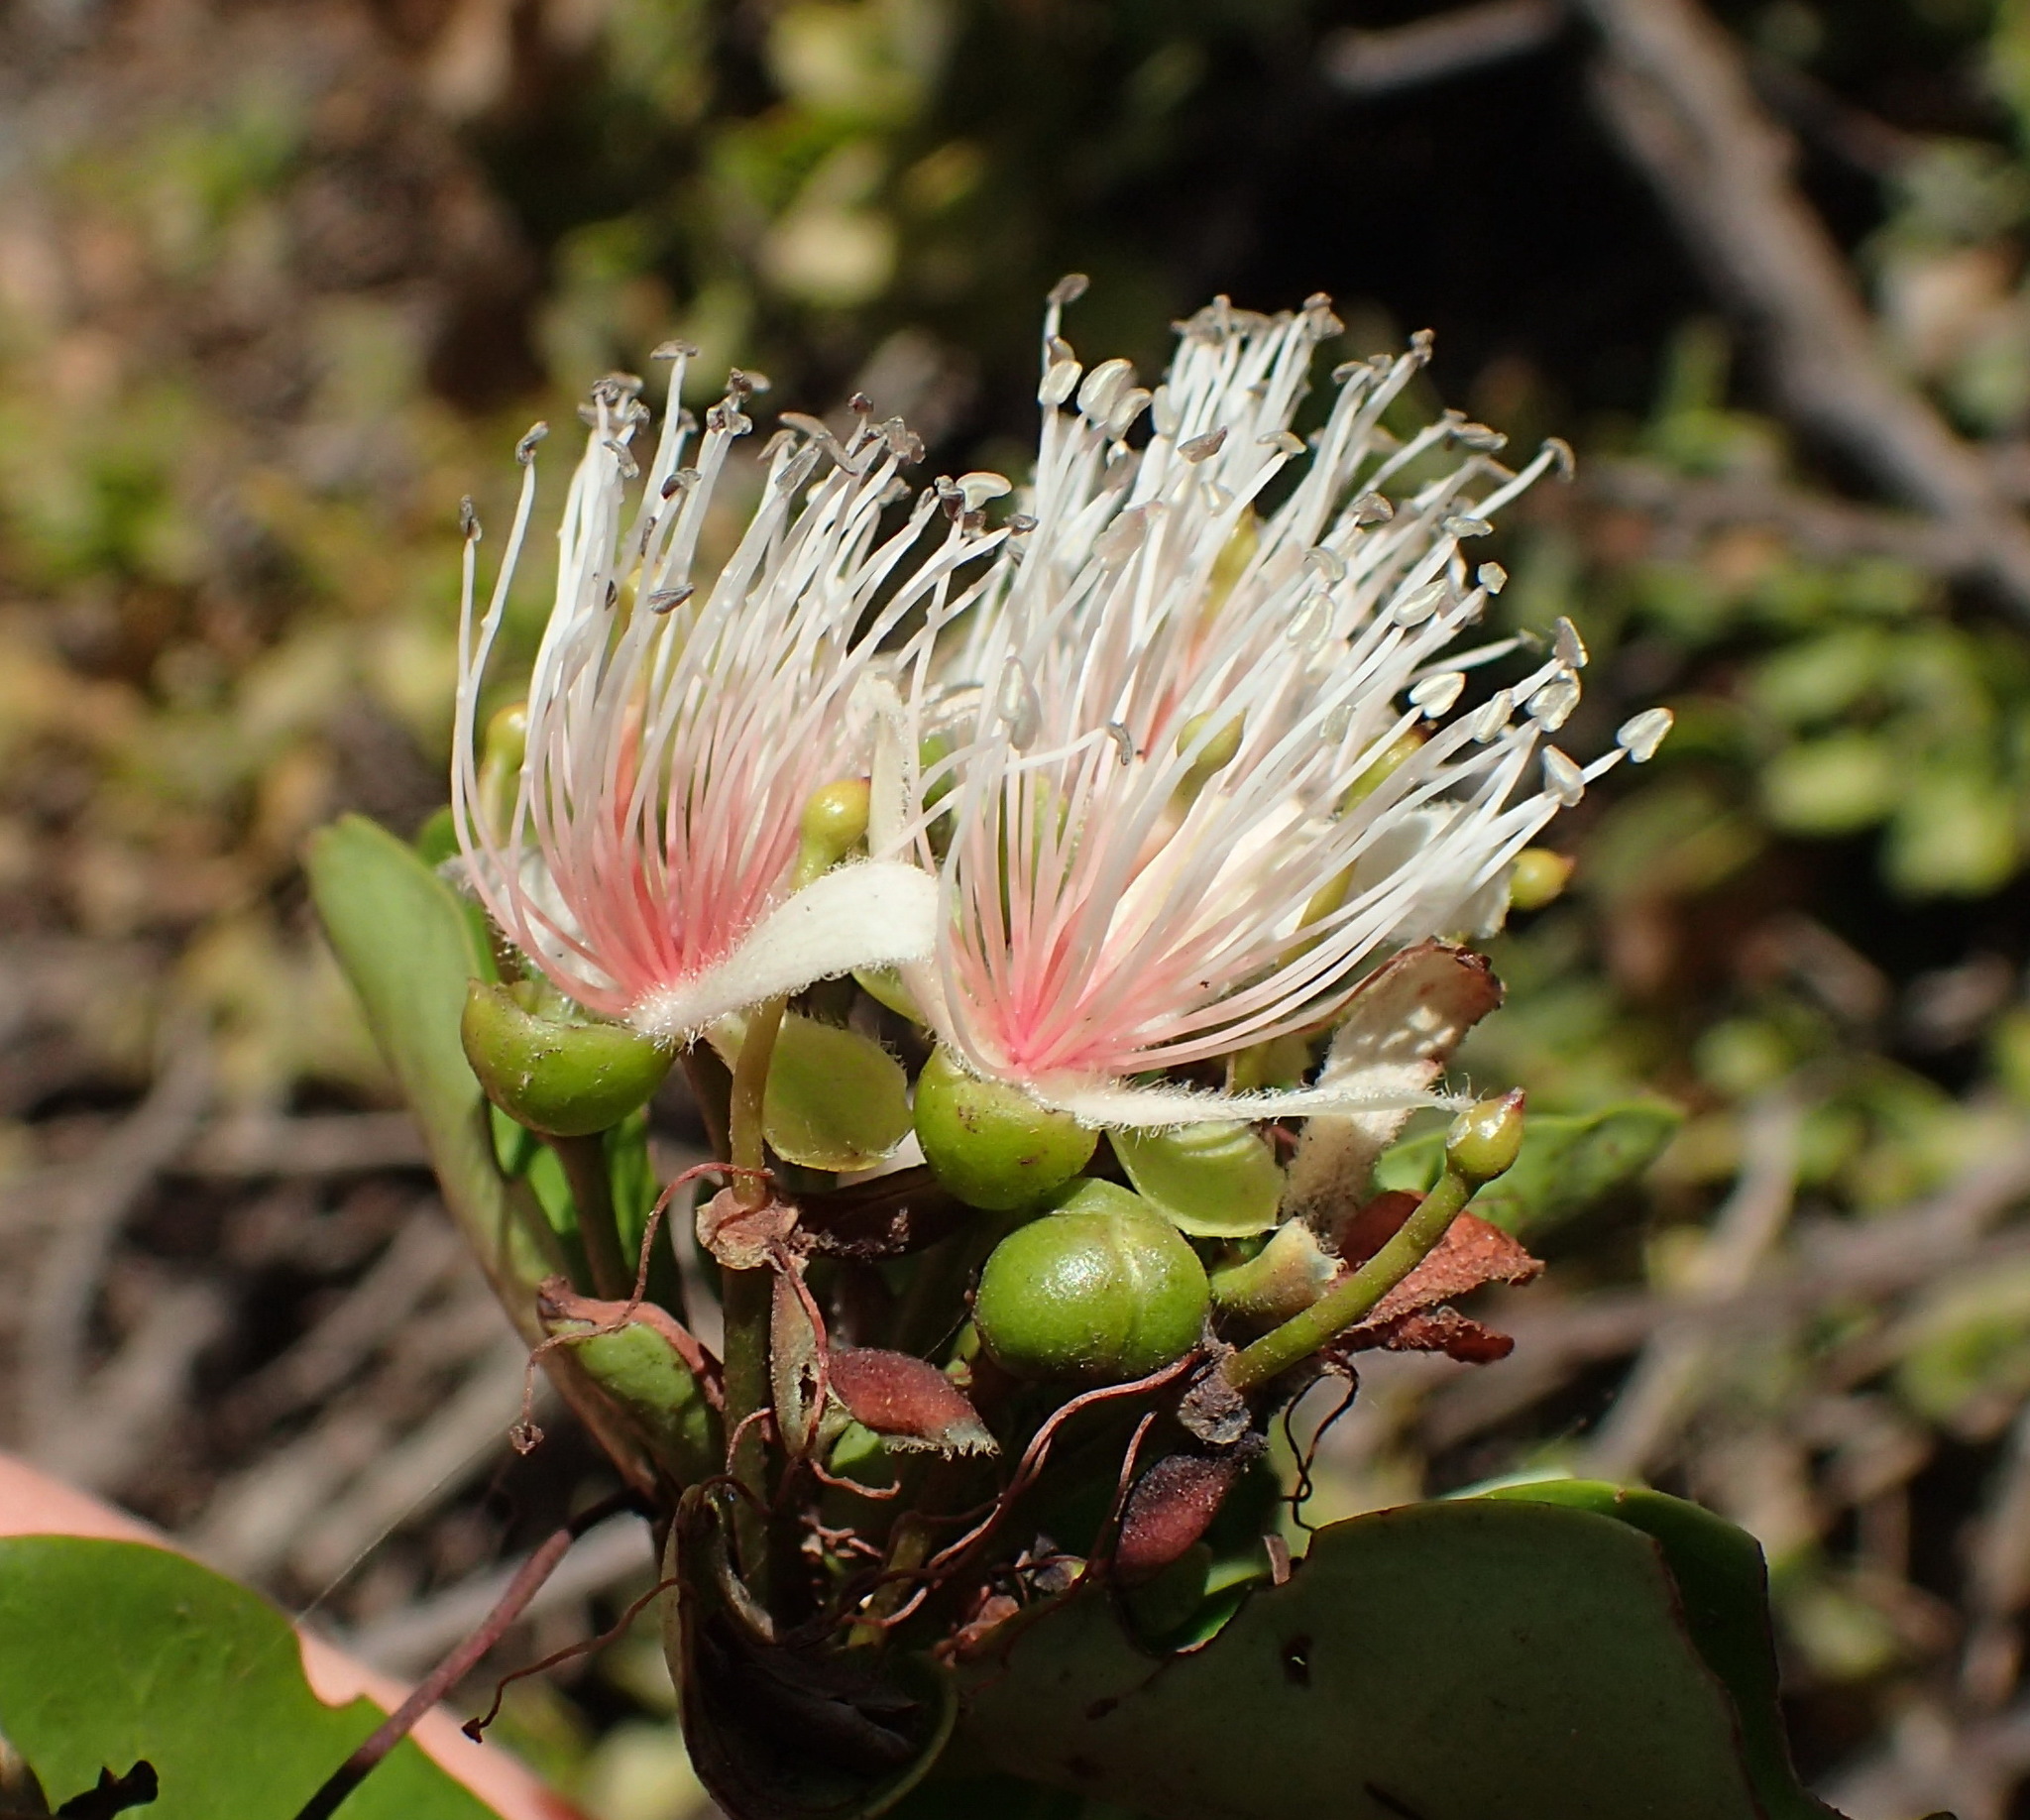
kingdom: Plantae
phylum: Tracheophyta
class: Magnoliopsida
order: Brassicales
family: Capparaceae
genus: Capparis
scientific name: Capparis sepiaria
